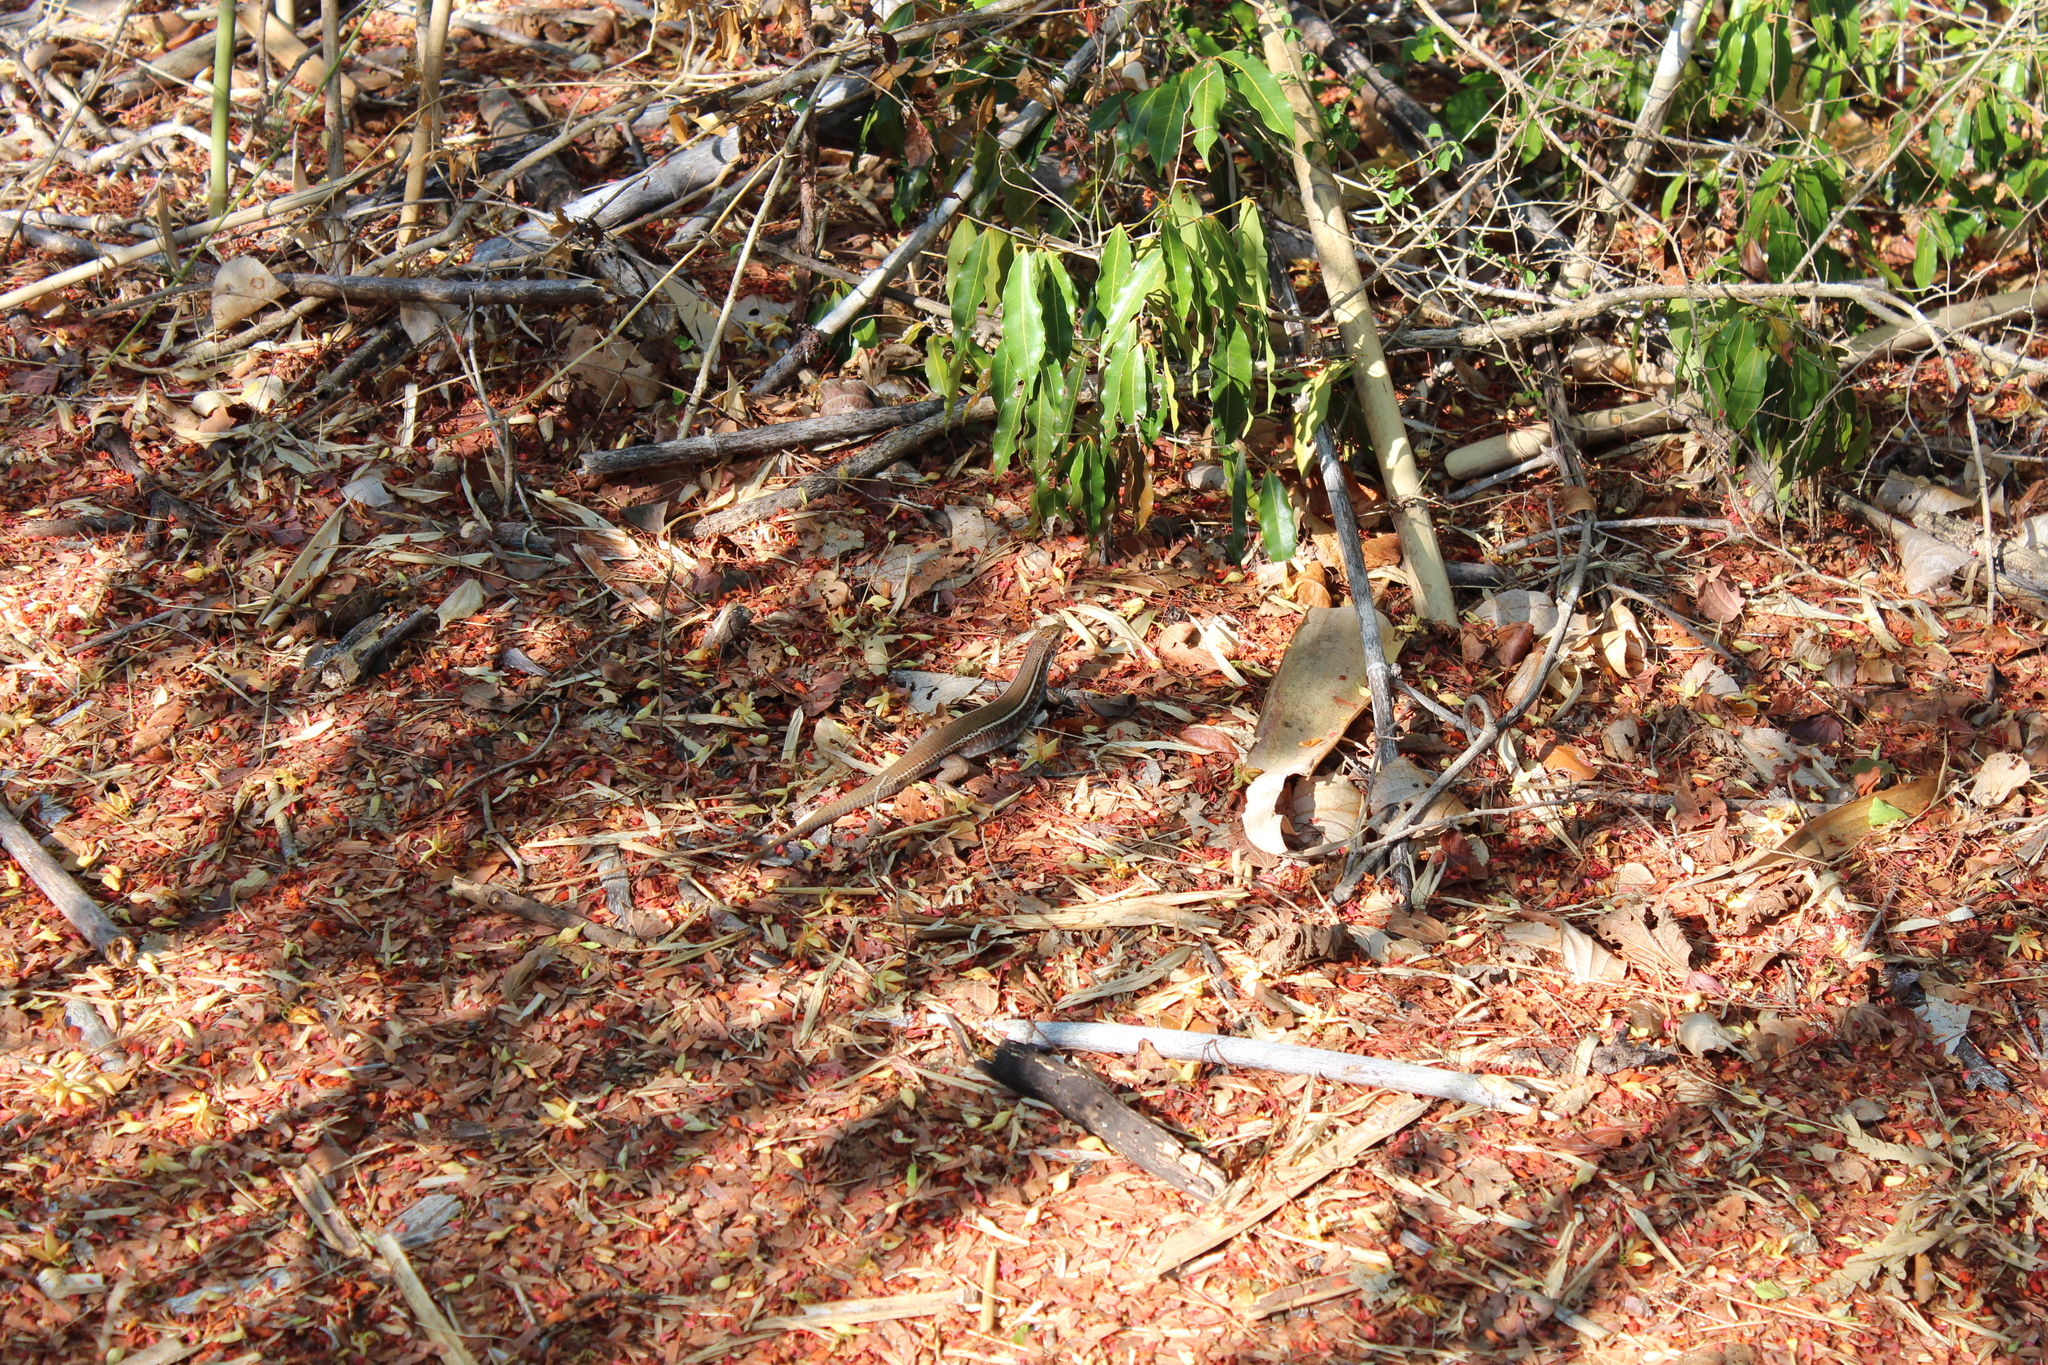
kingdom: Animalia
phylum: Chordata
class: Squamata
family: Gerrhosauridae
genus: Zonosaurus
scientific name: Zonosaurus karsteni
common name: Karsten's girdled lizard
